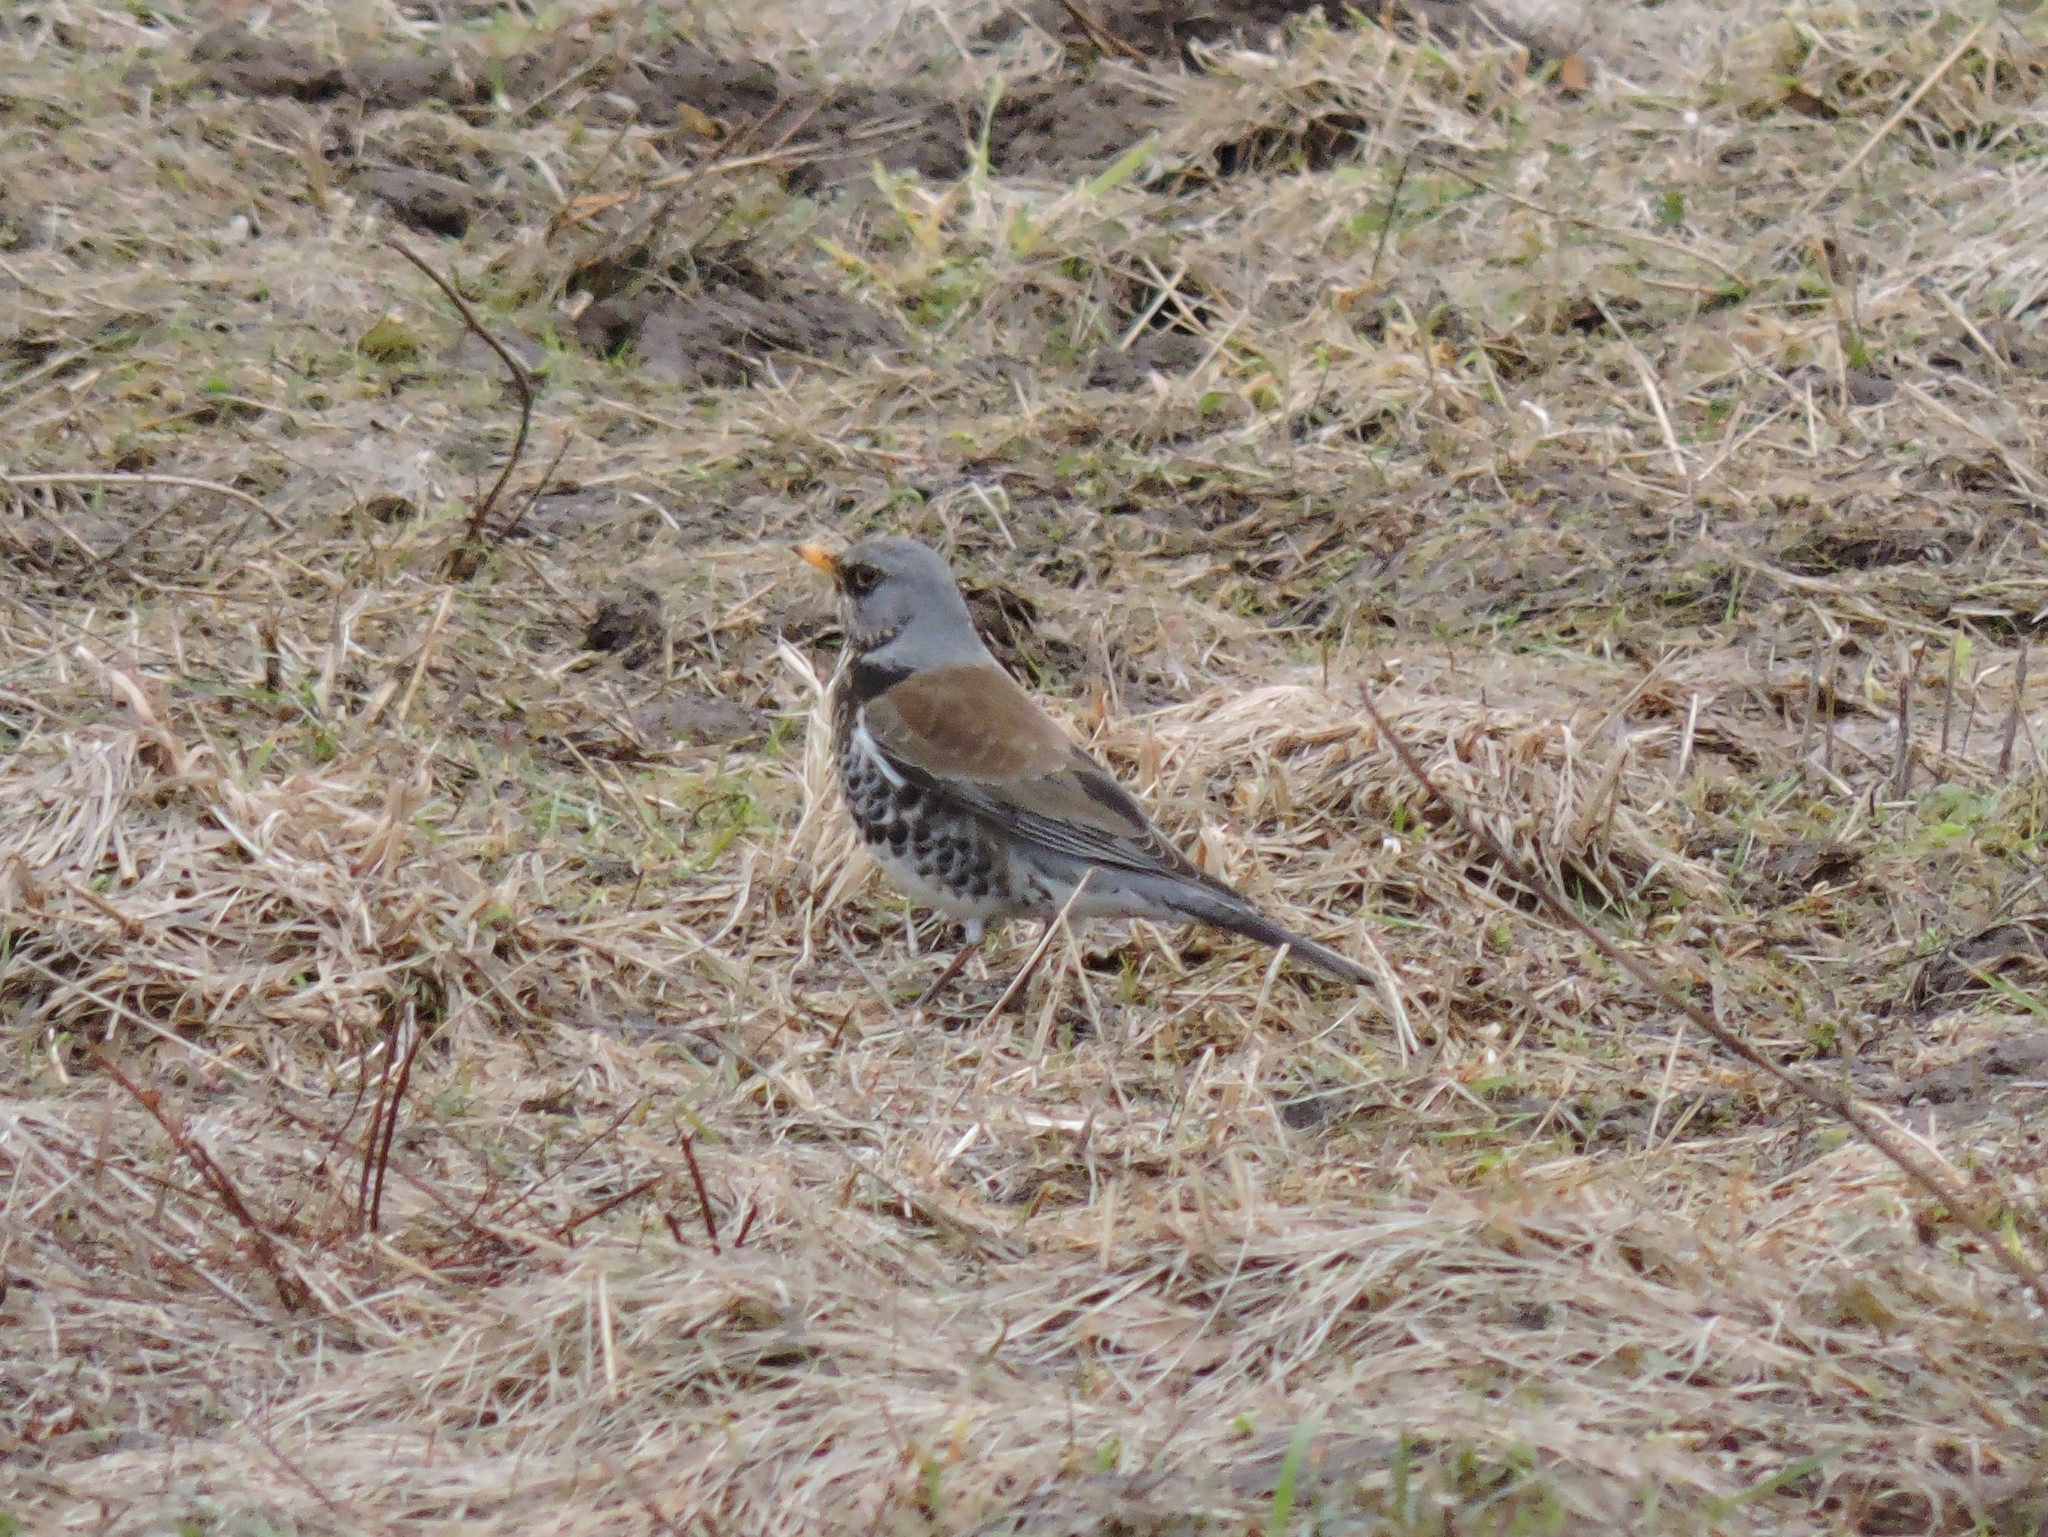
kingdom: Animalia
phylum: Chordata
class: Aves
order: Passeriformes
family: Turdidae
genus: Turdus
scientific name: Turdus pilaris
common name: Fieldfare
